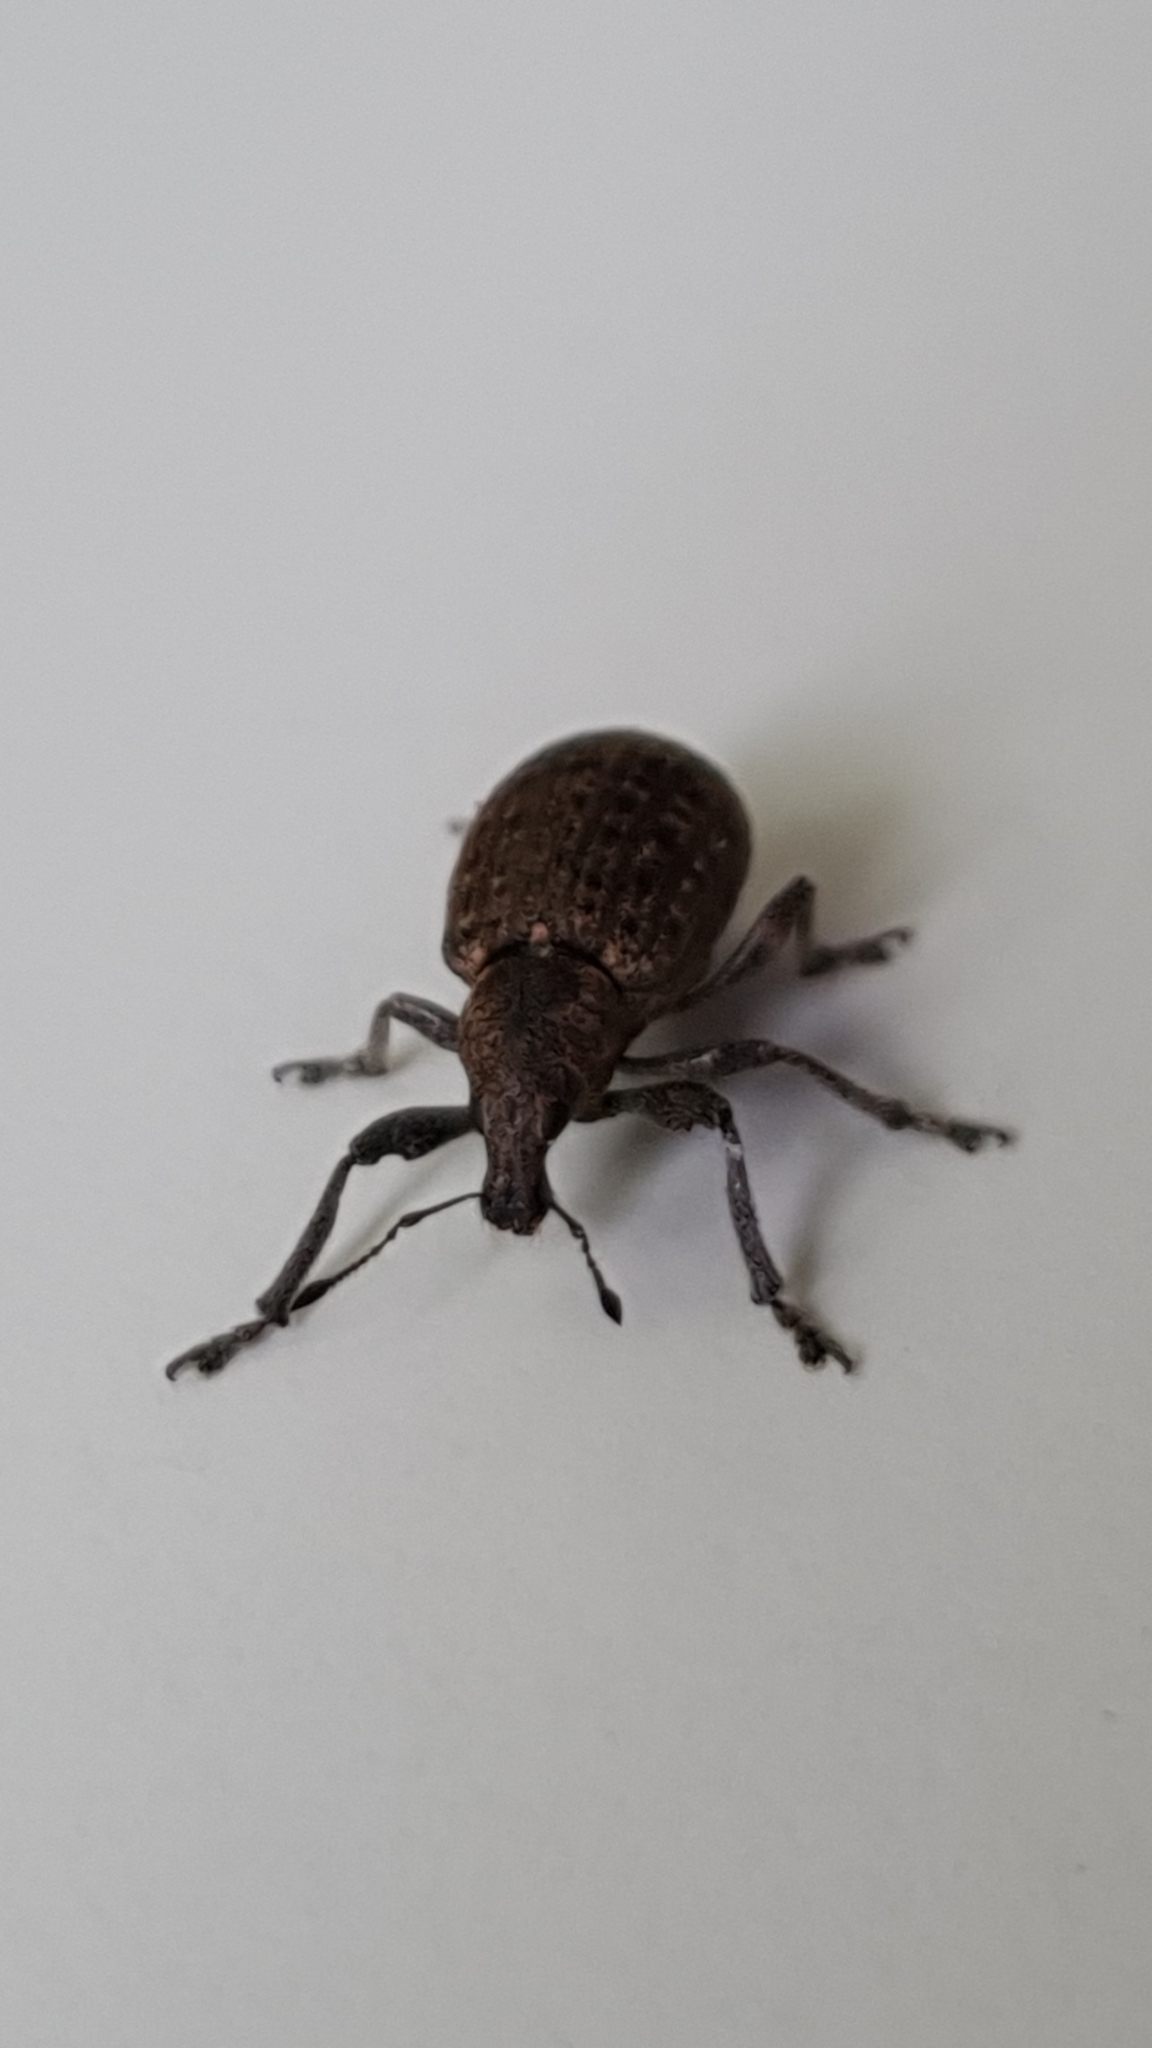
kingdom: Animalia
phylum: Arthropoda
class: Insecta
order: Coleoptera
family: Curculionidae
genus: Liophloeus
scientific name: Liophloeus tessulatus
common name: Weevil
